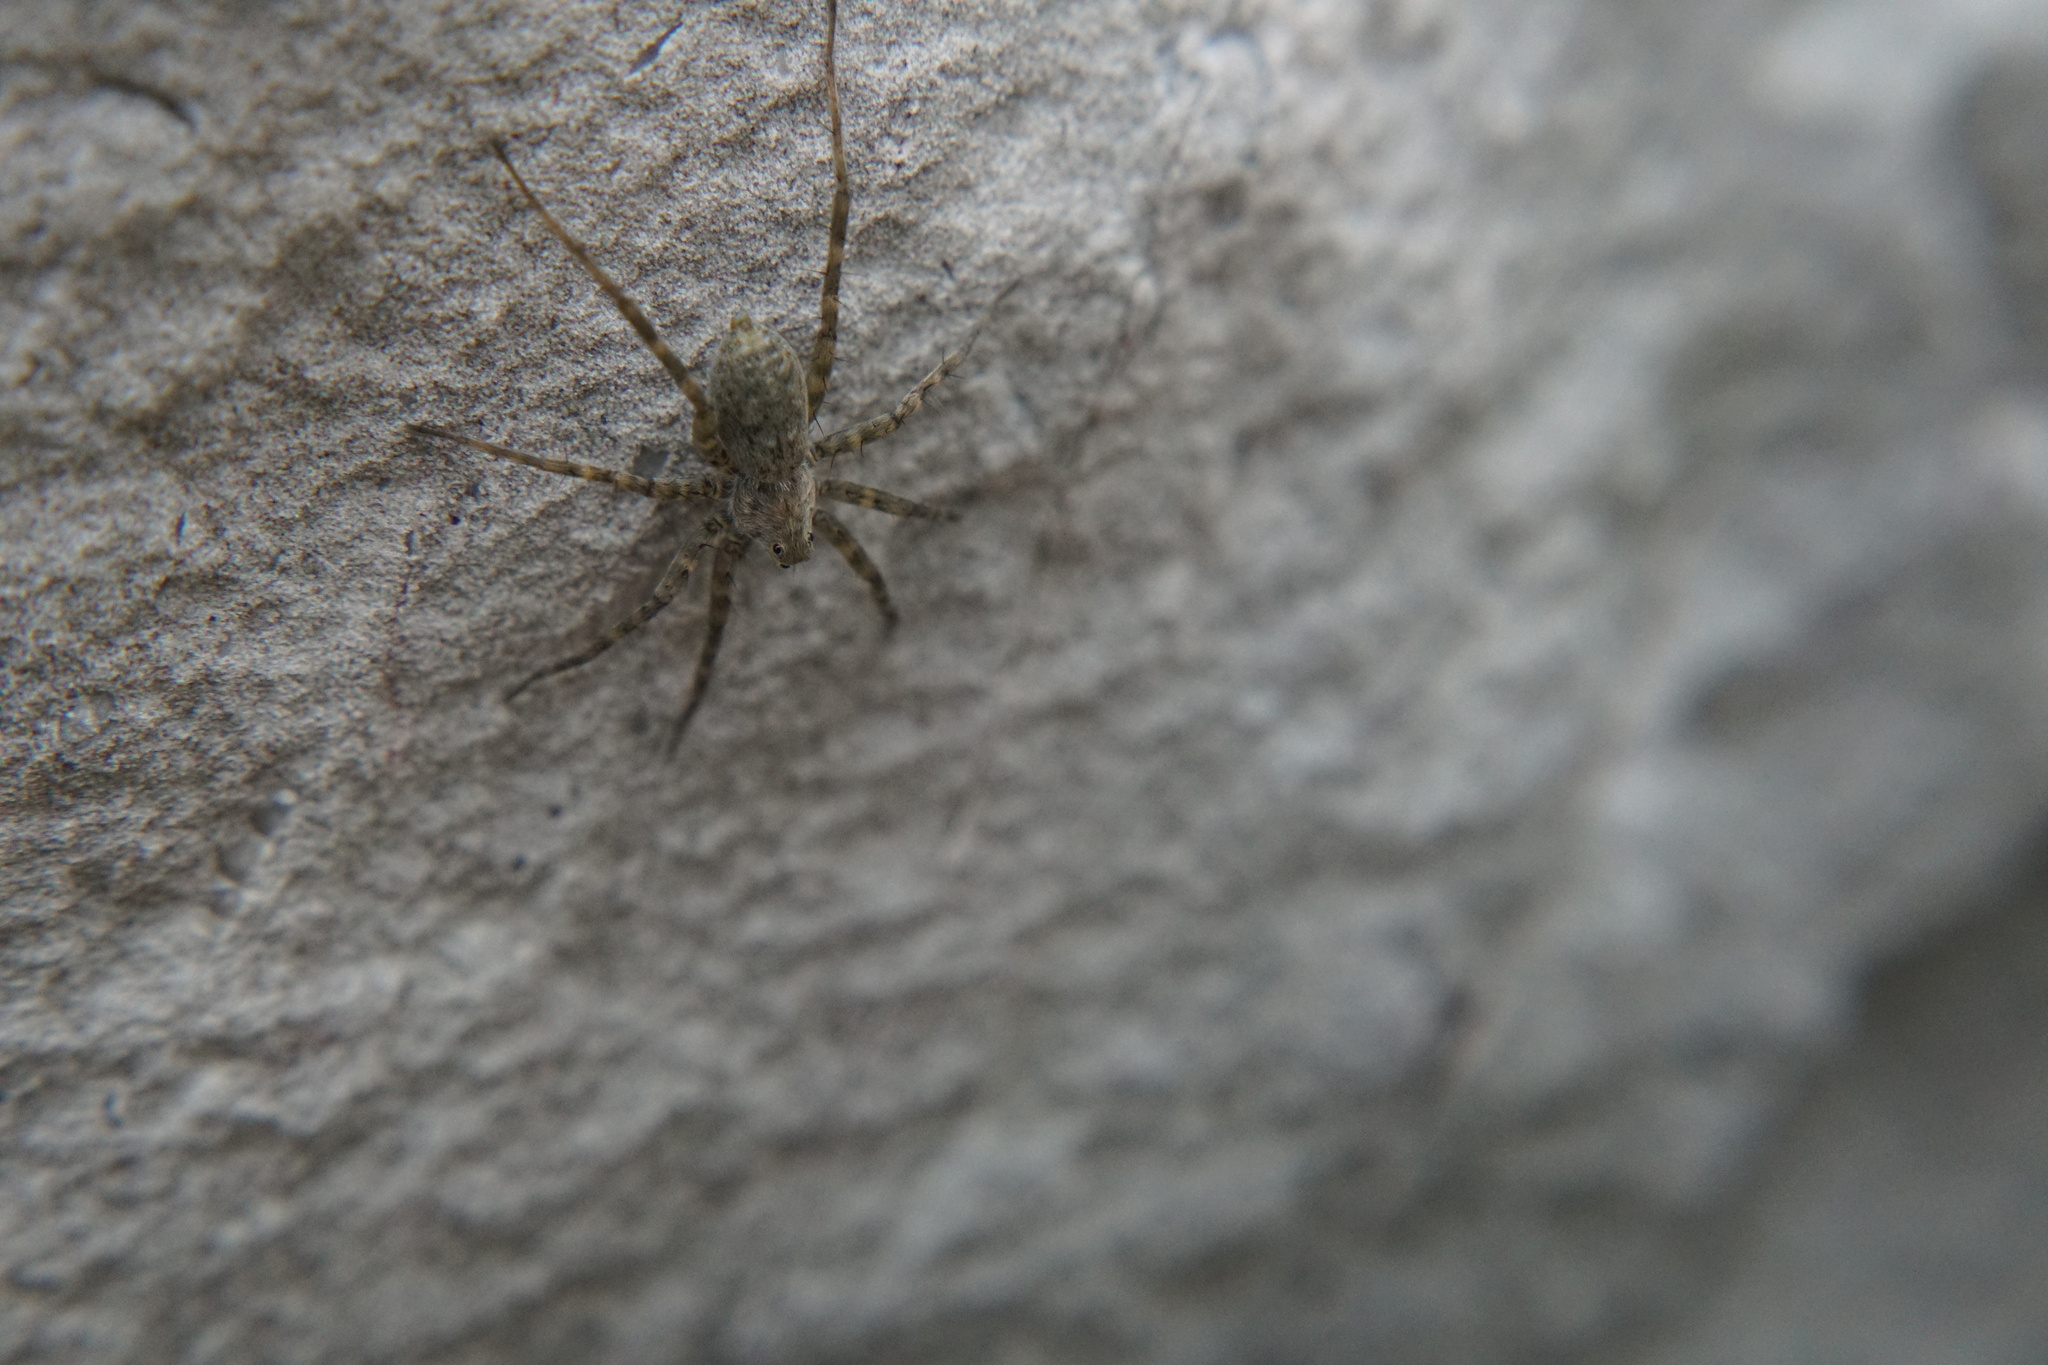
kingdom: Animalia
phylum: Arthropoda
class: Arachnida
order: Araneae
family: Lycosidae
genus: Pardosa
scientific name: Pardosa lapidicina
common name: Stone spider
